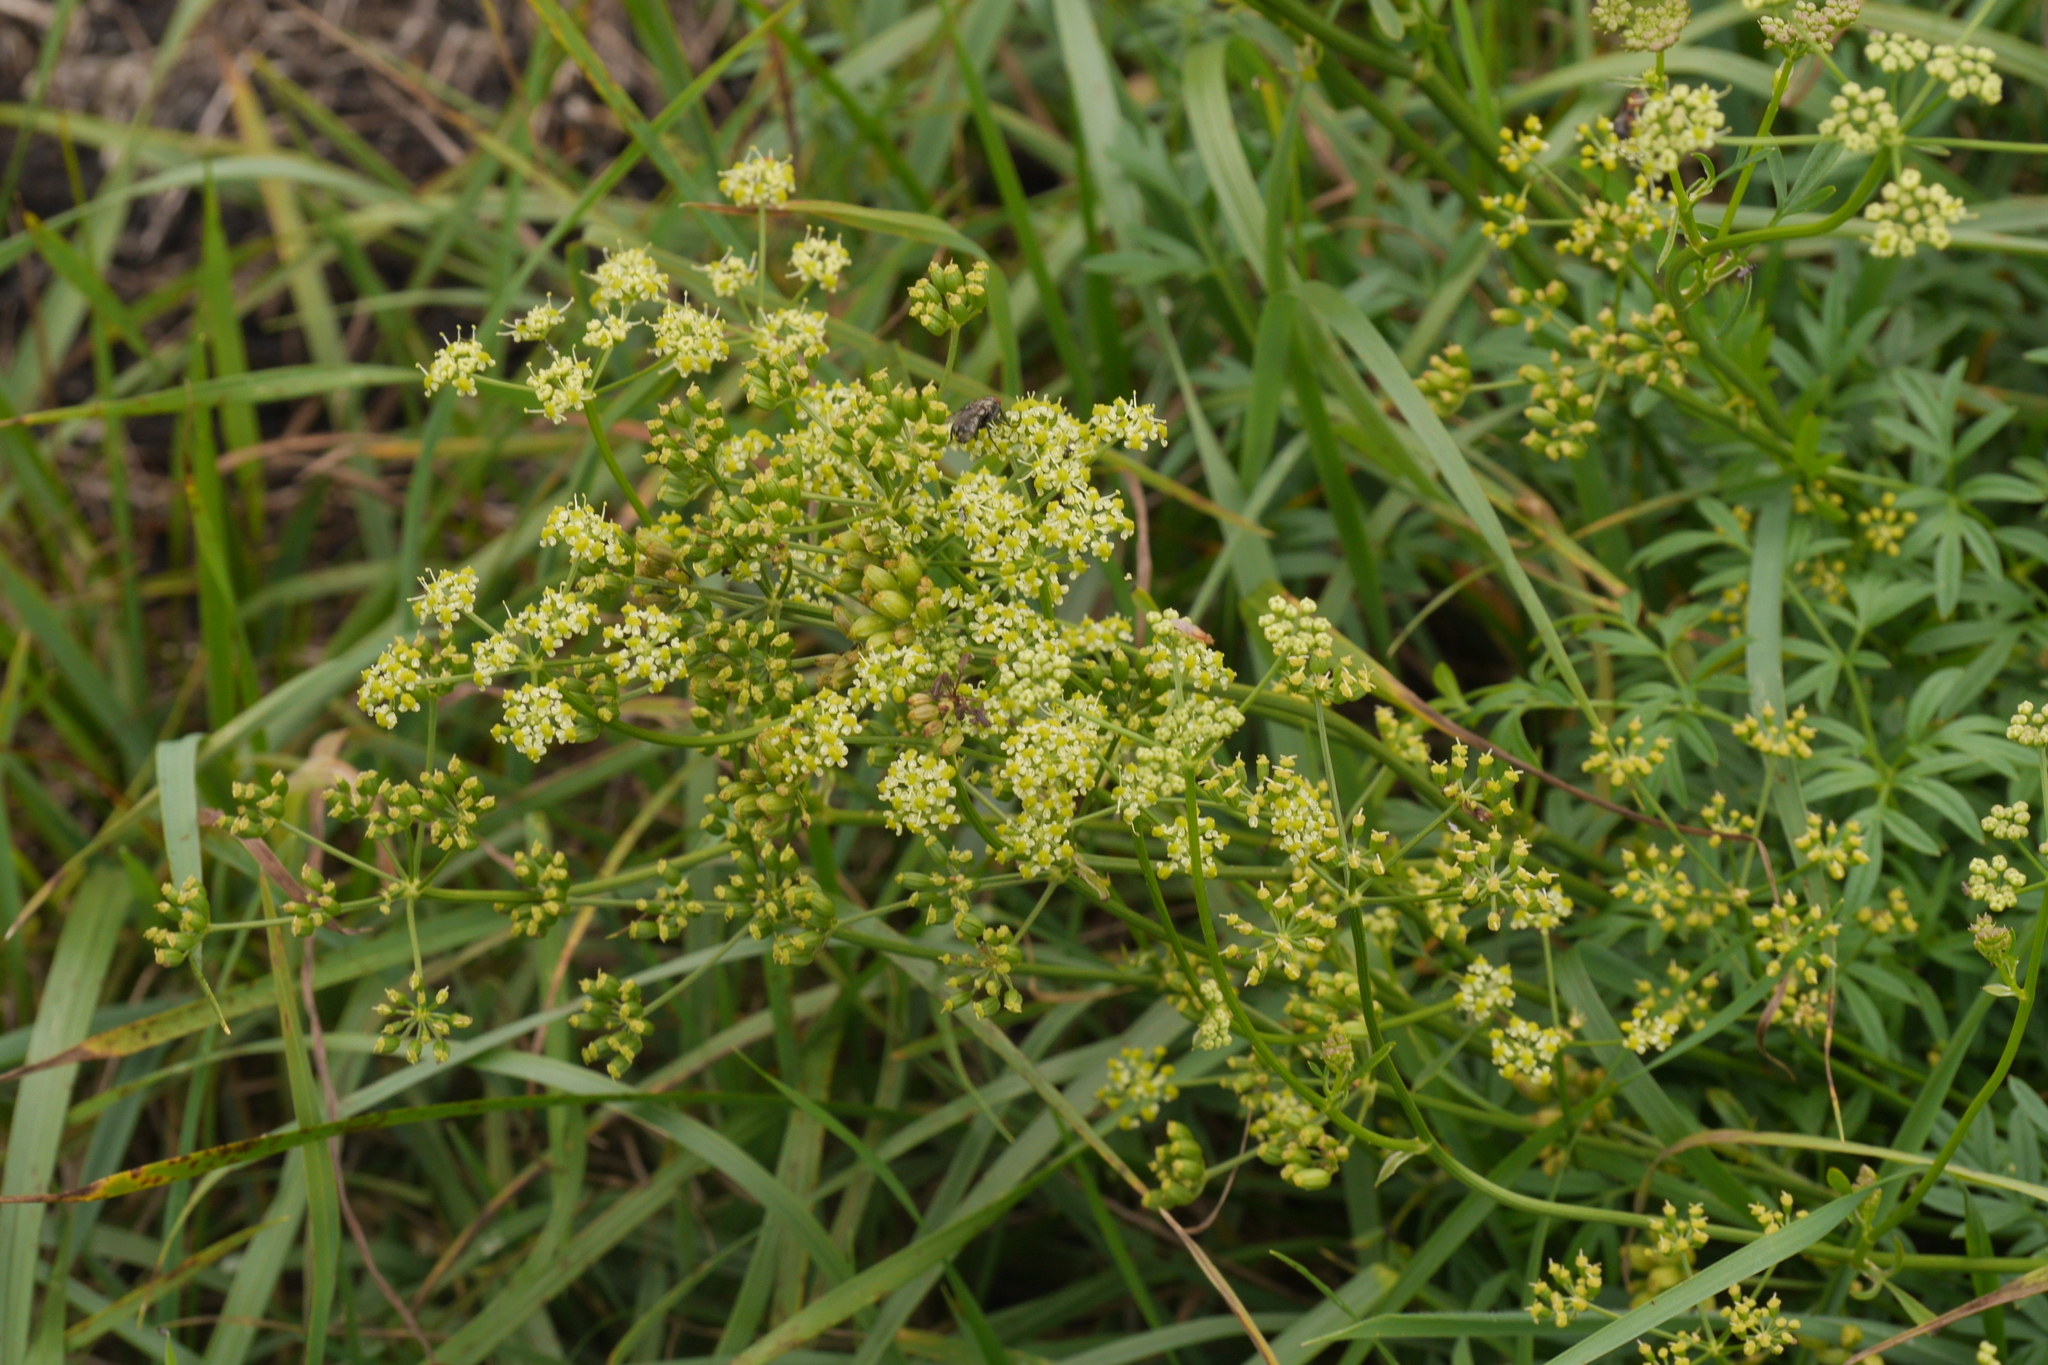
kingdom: Plantae
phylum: Tracheophyta
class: Magnoliopsida
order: Apiales
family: Apiaceae
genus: Silaum
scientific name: Silaum silaus
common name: Pepper-saxifrage
